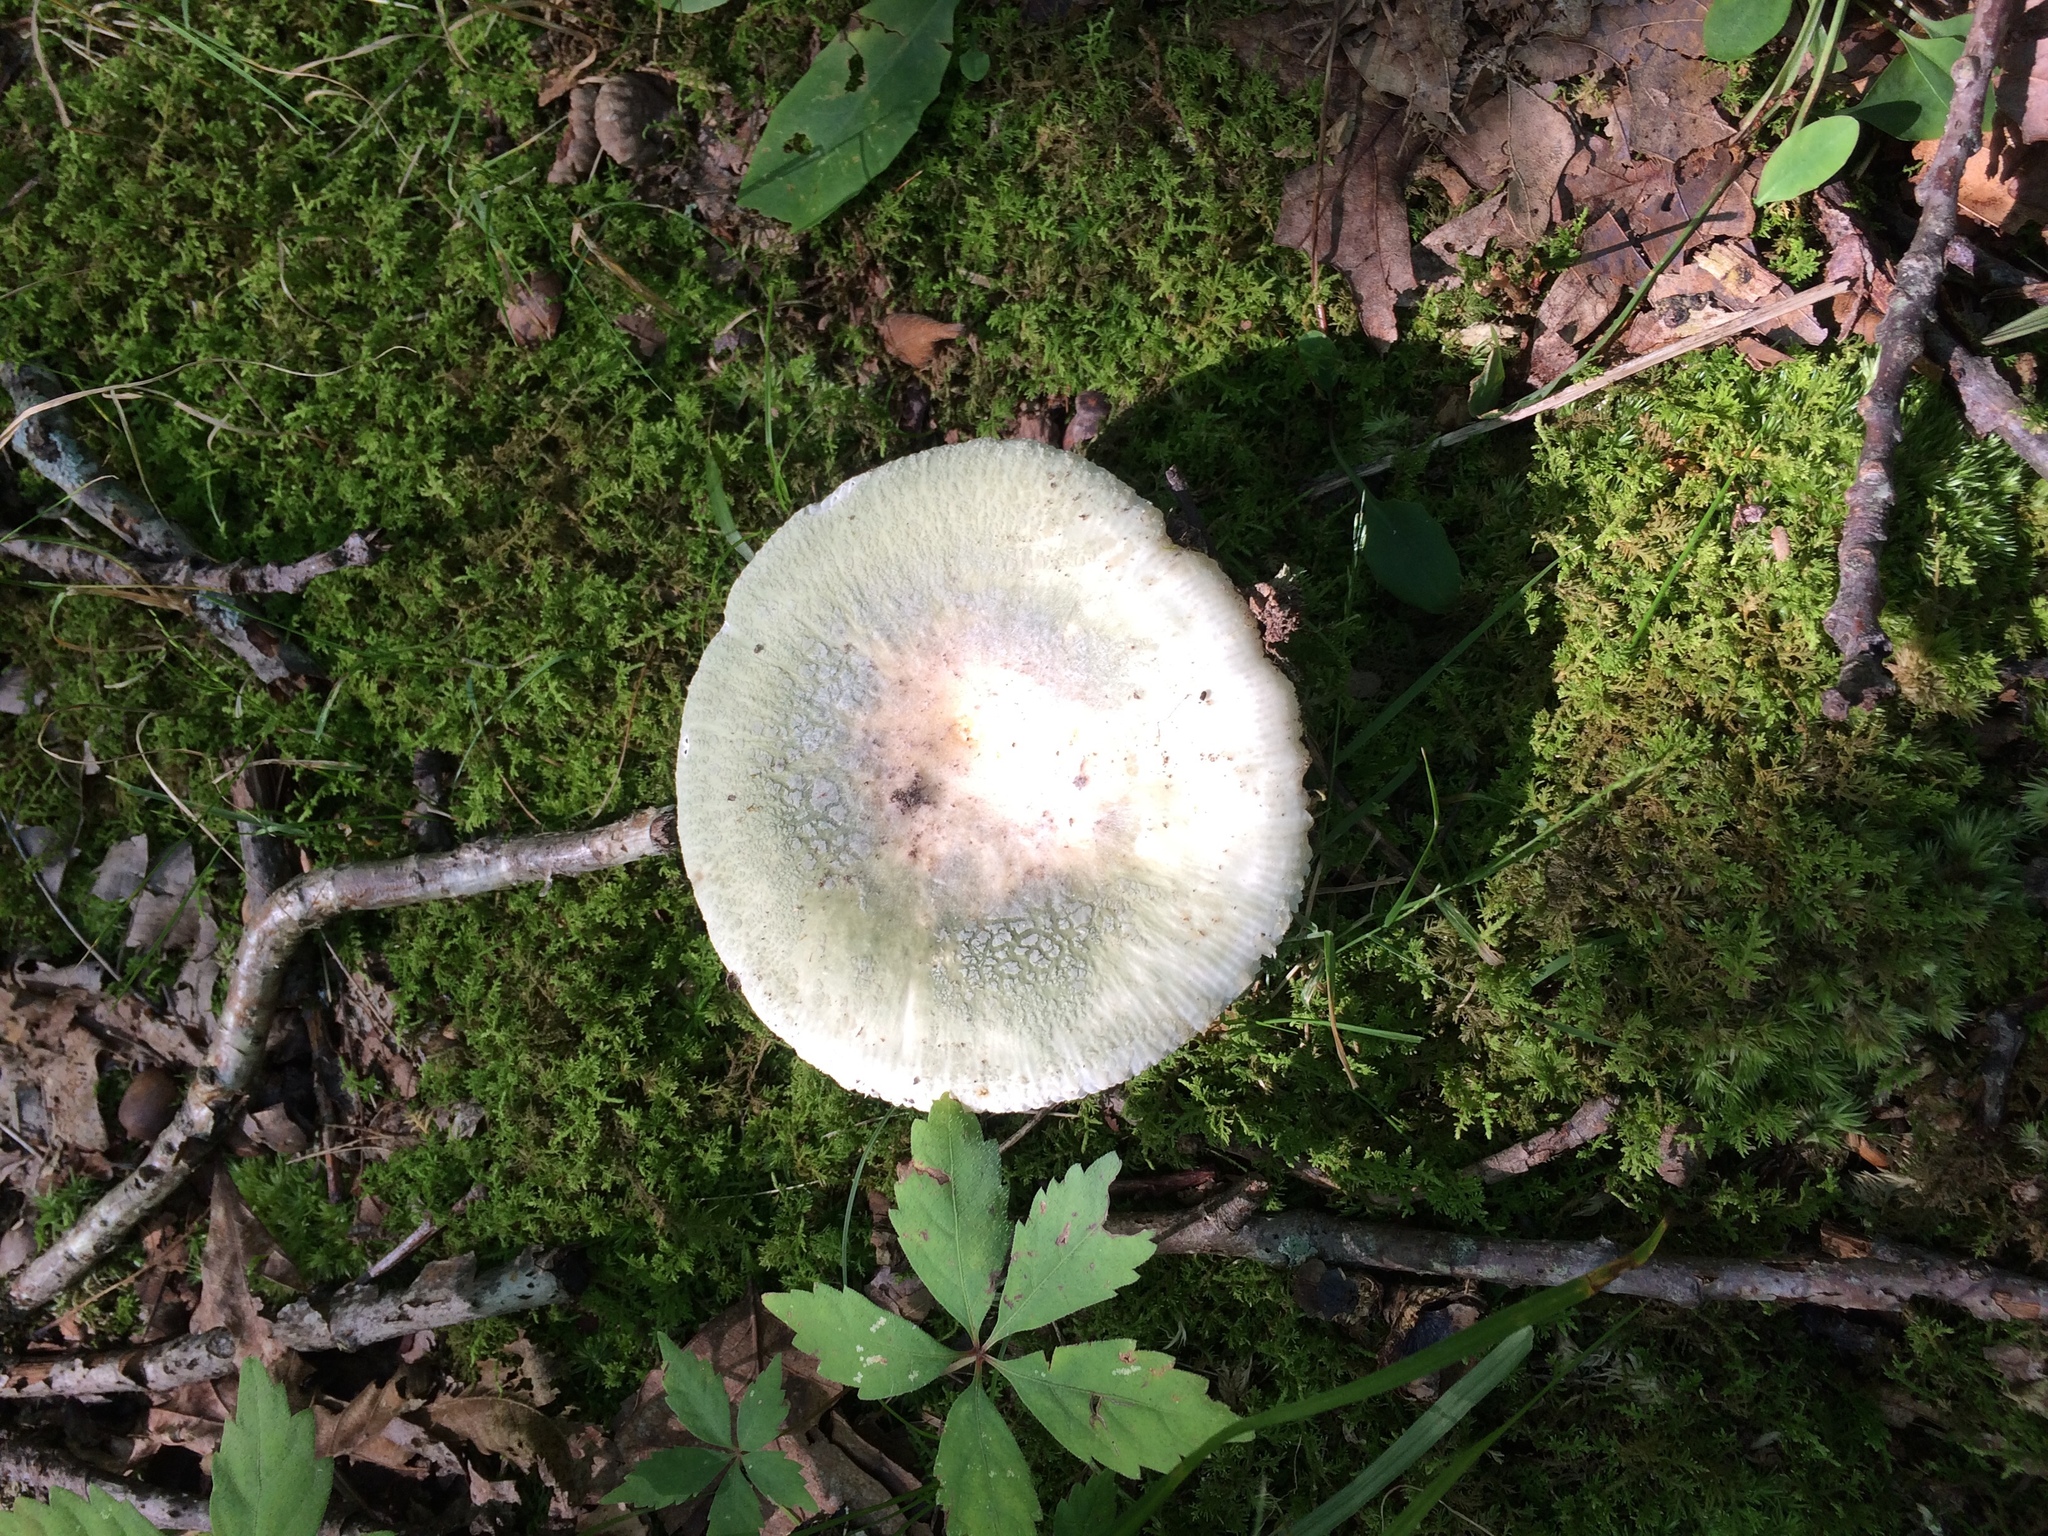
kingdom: Fungi
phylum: Basidiomycota
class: Agaricomycetes
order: Russulales
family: Russulaceae
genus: Russula
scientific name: Russula parvovirescens
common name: Blue-green cracking russula
